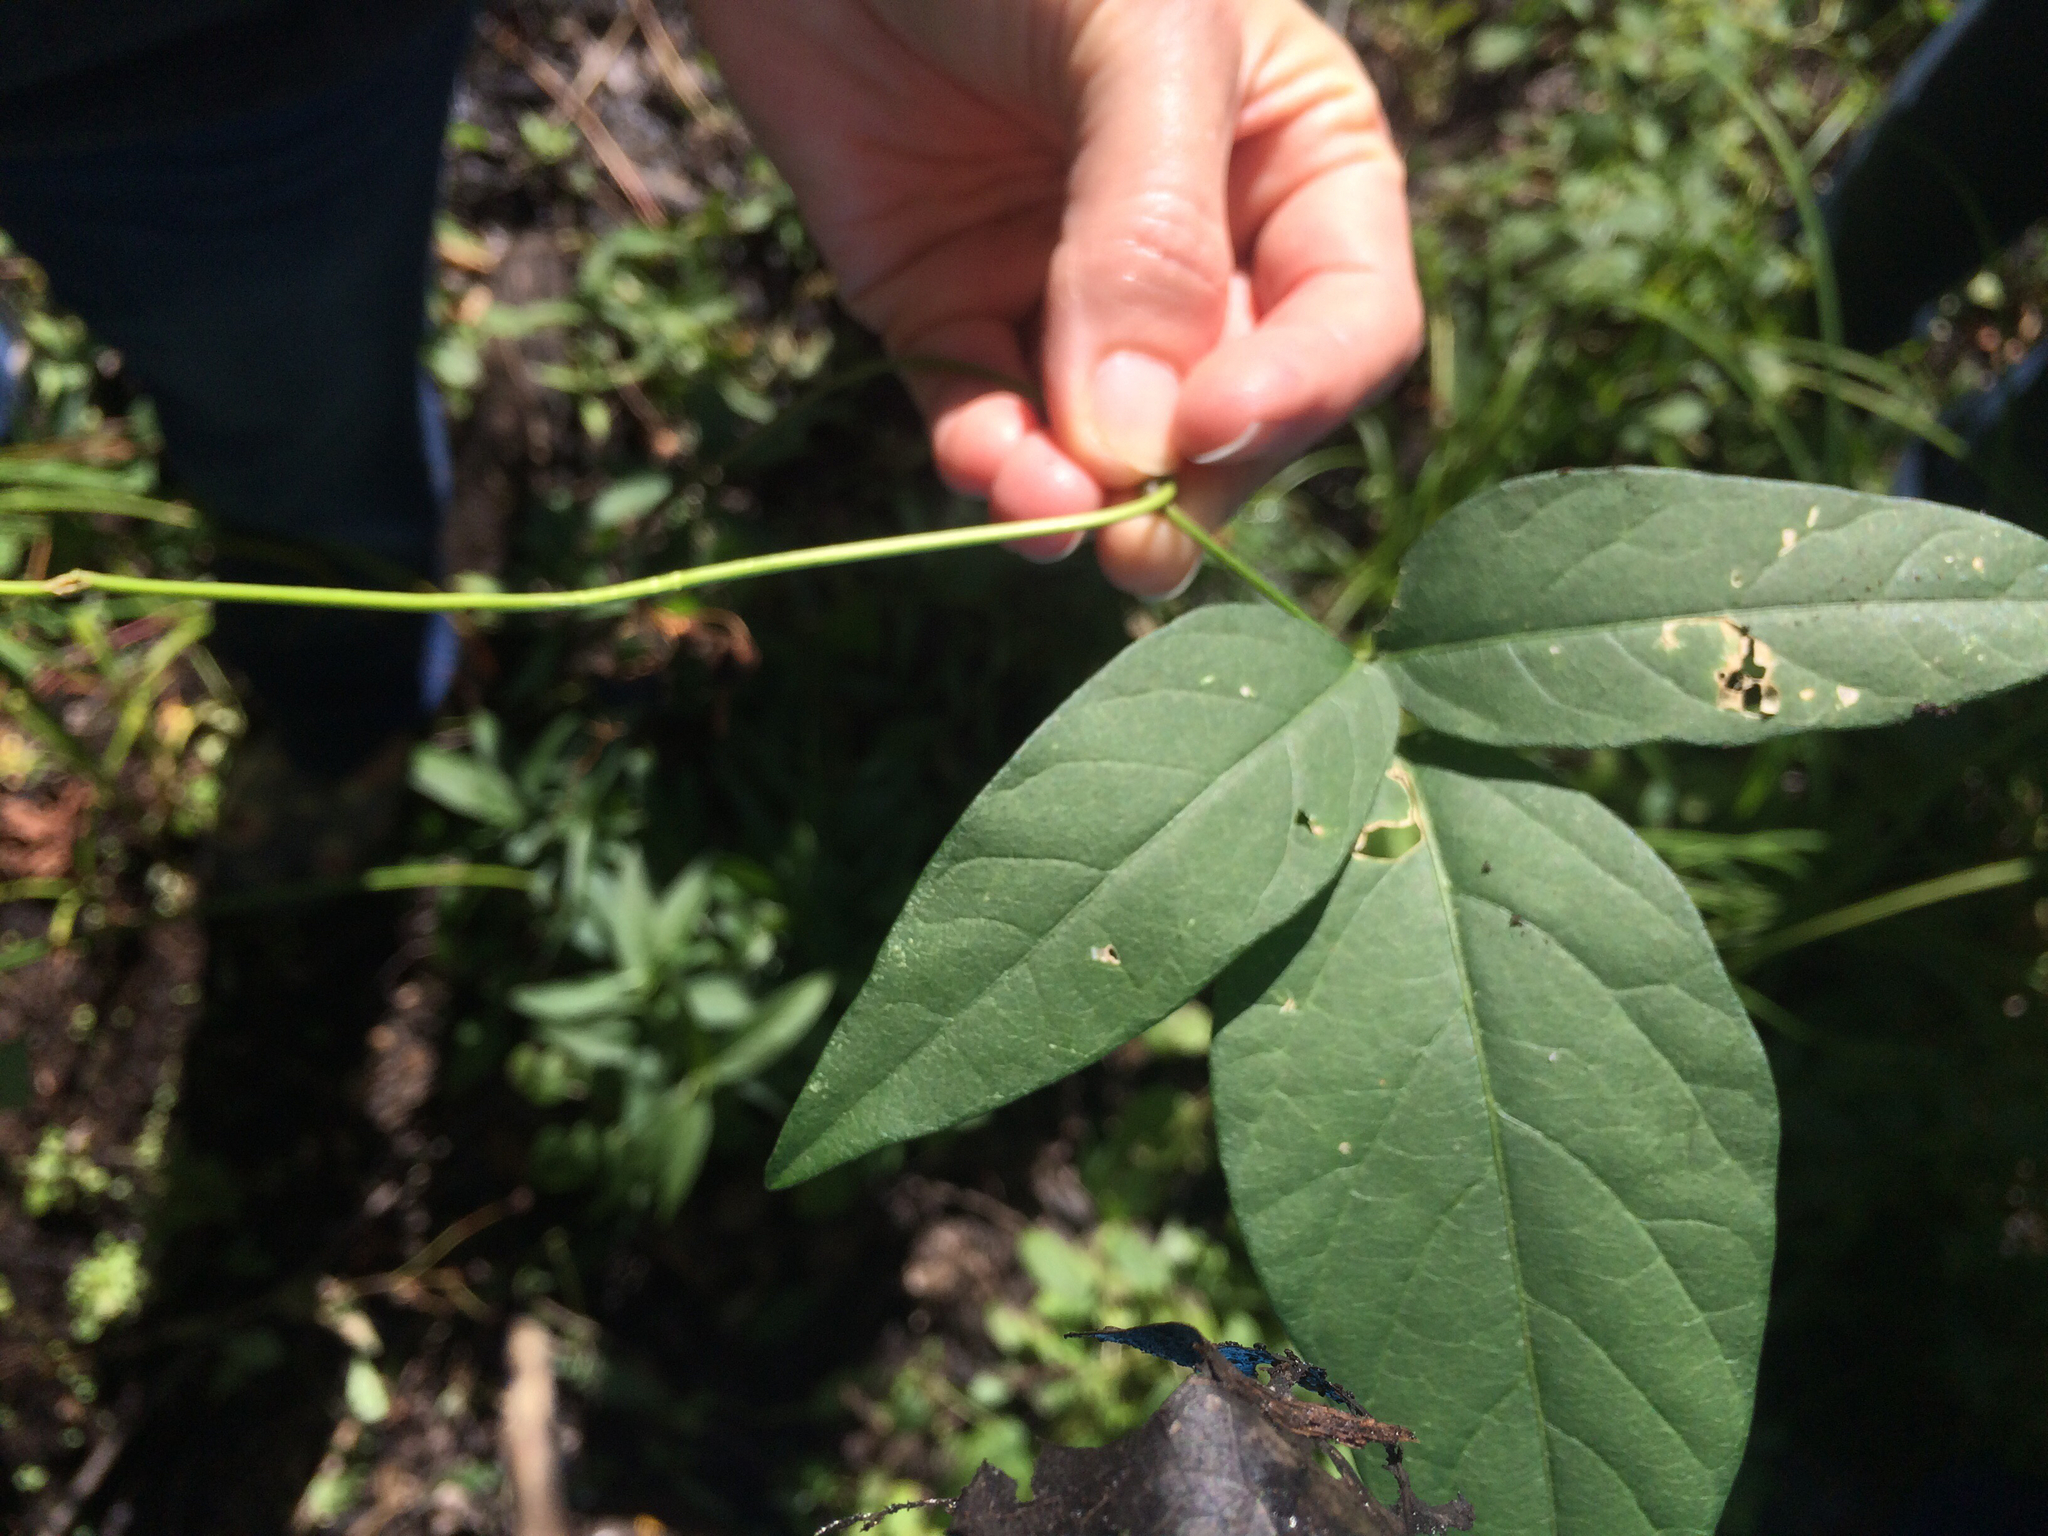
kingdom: Plantae
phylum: Tracheophyta
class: Magnoliopsida
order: Fabales
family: Fabaceae
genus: Amphicarpaea
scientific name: Amphicarpaea bracteata
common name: American hog peanut
